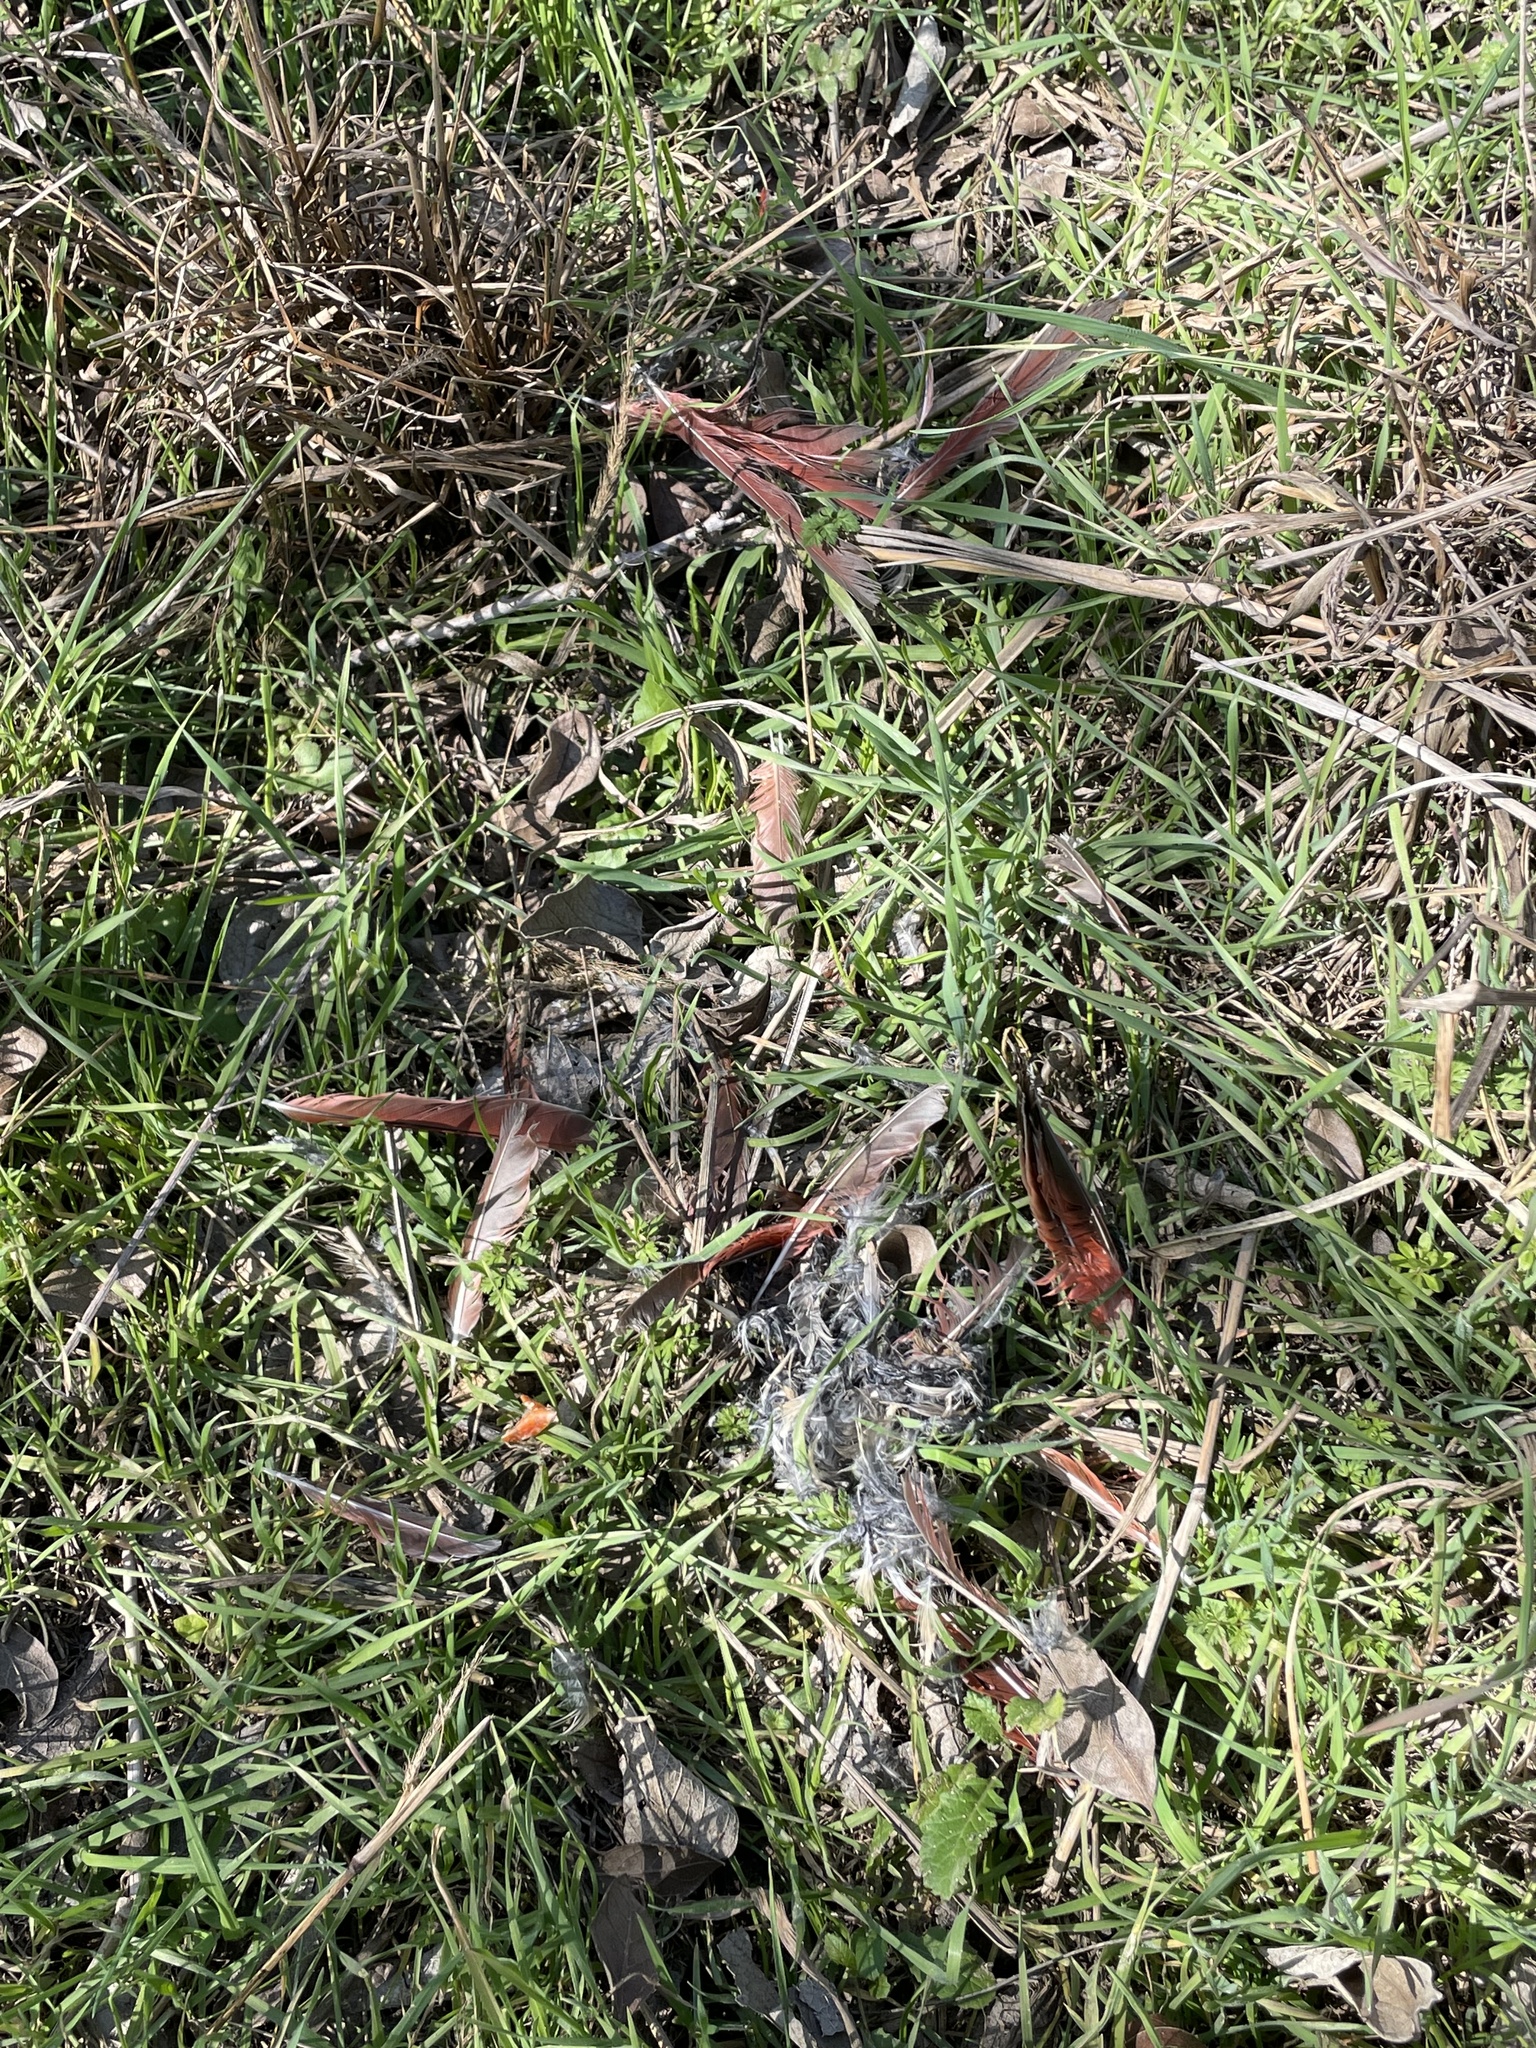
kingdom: Animalia
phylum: Chordata
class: Aves
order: Passeriformes
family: Cardinalidae
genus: Cardinalis
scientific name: Cardinalis cardinalis
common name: Northern cardinal
